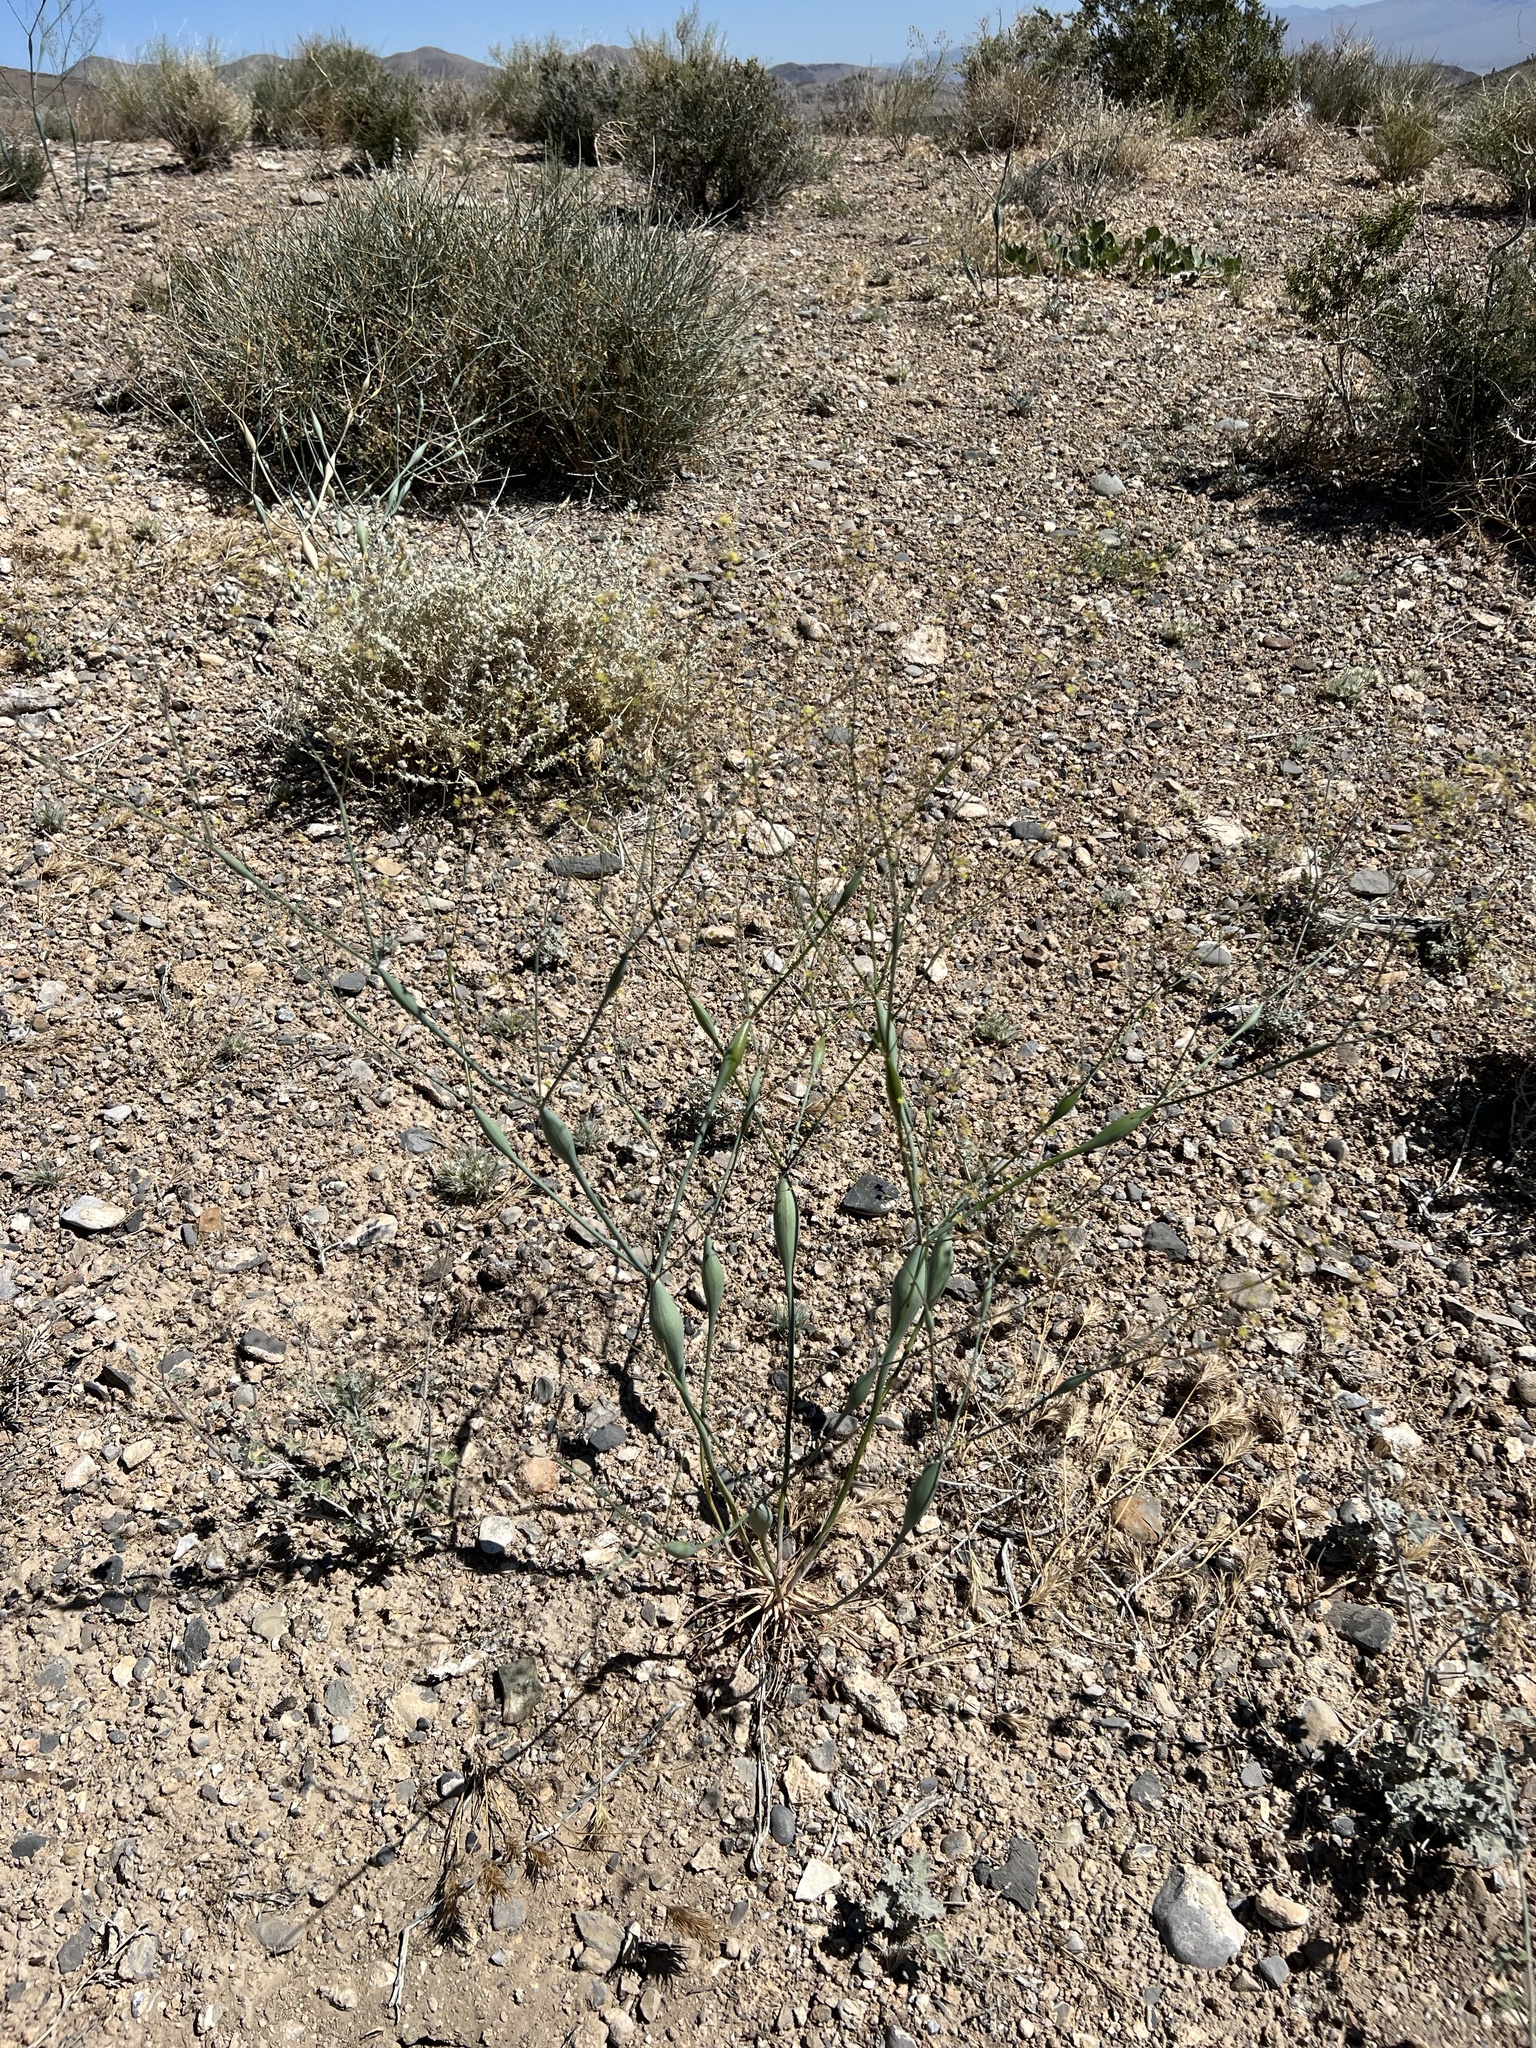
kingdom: Plantae
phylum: Tracheophyta
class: Magnoliopsida
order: Caryophyllales
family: Polygonaceae
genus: Eriogonum
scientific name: Eriogonum inflatum
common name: Desert trumpet
